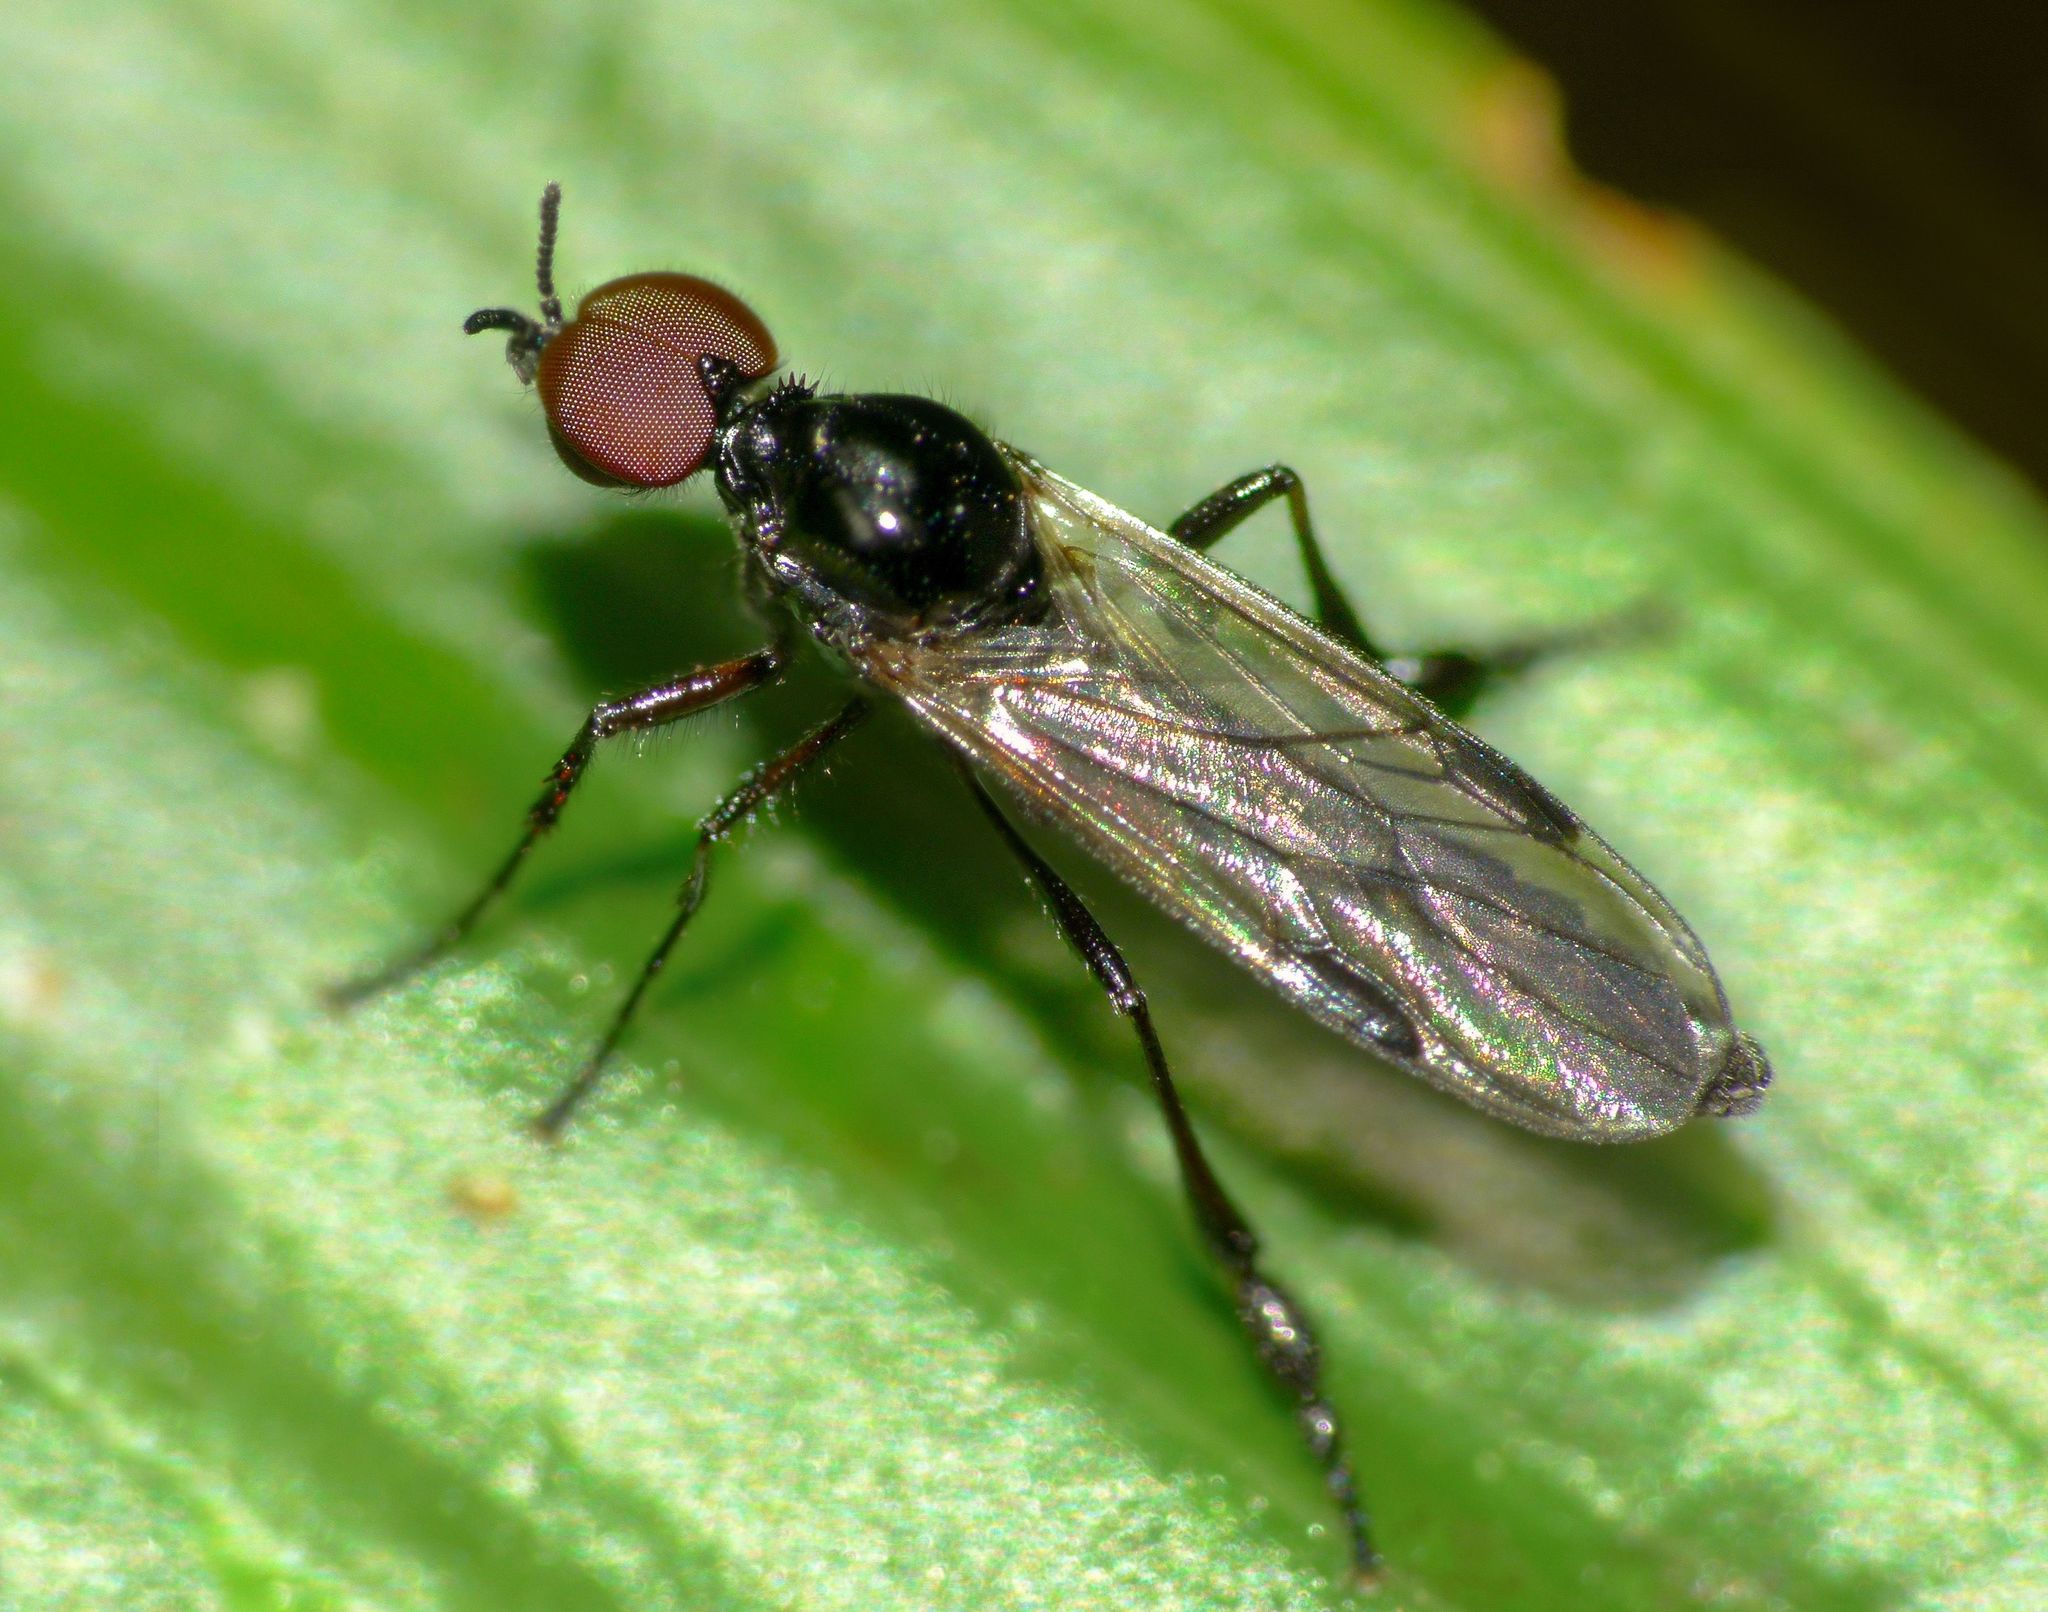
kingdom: Animalia
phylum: Arthropoda
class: Insecta
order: Diptera
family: Bibionidae
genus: Dilophus
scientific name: Dilophus segnis
